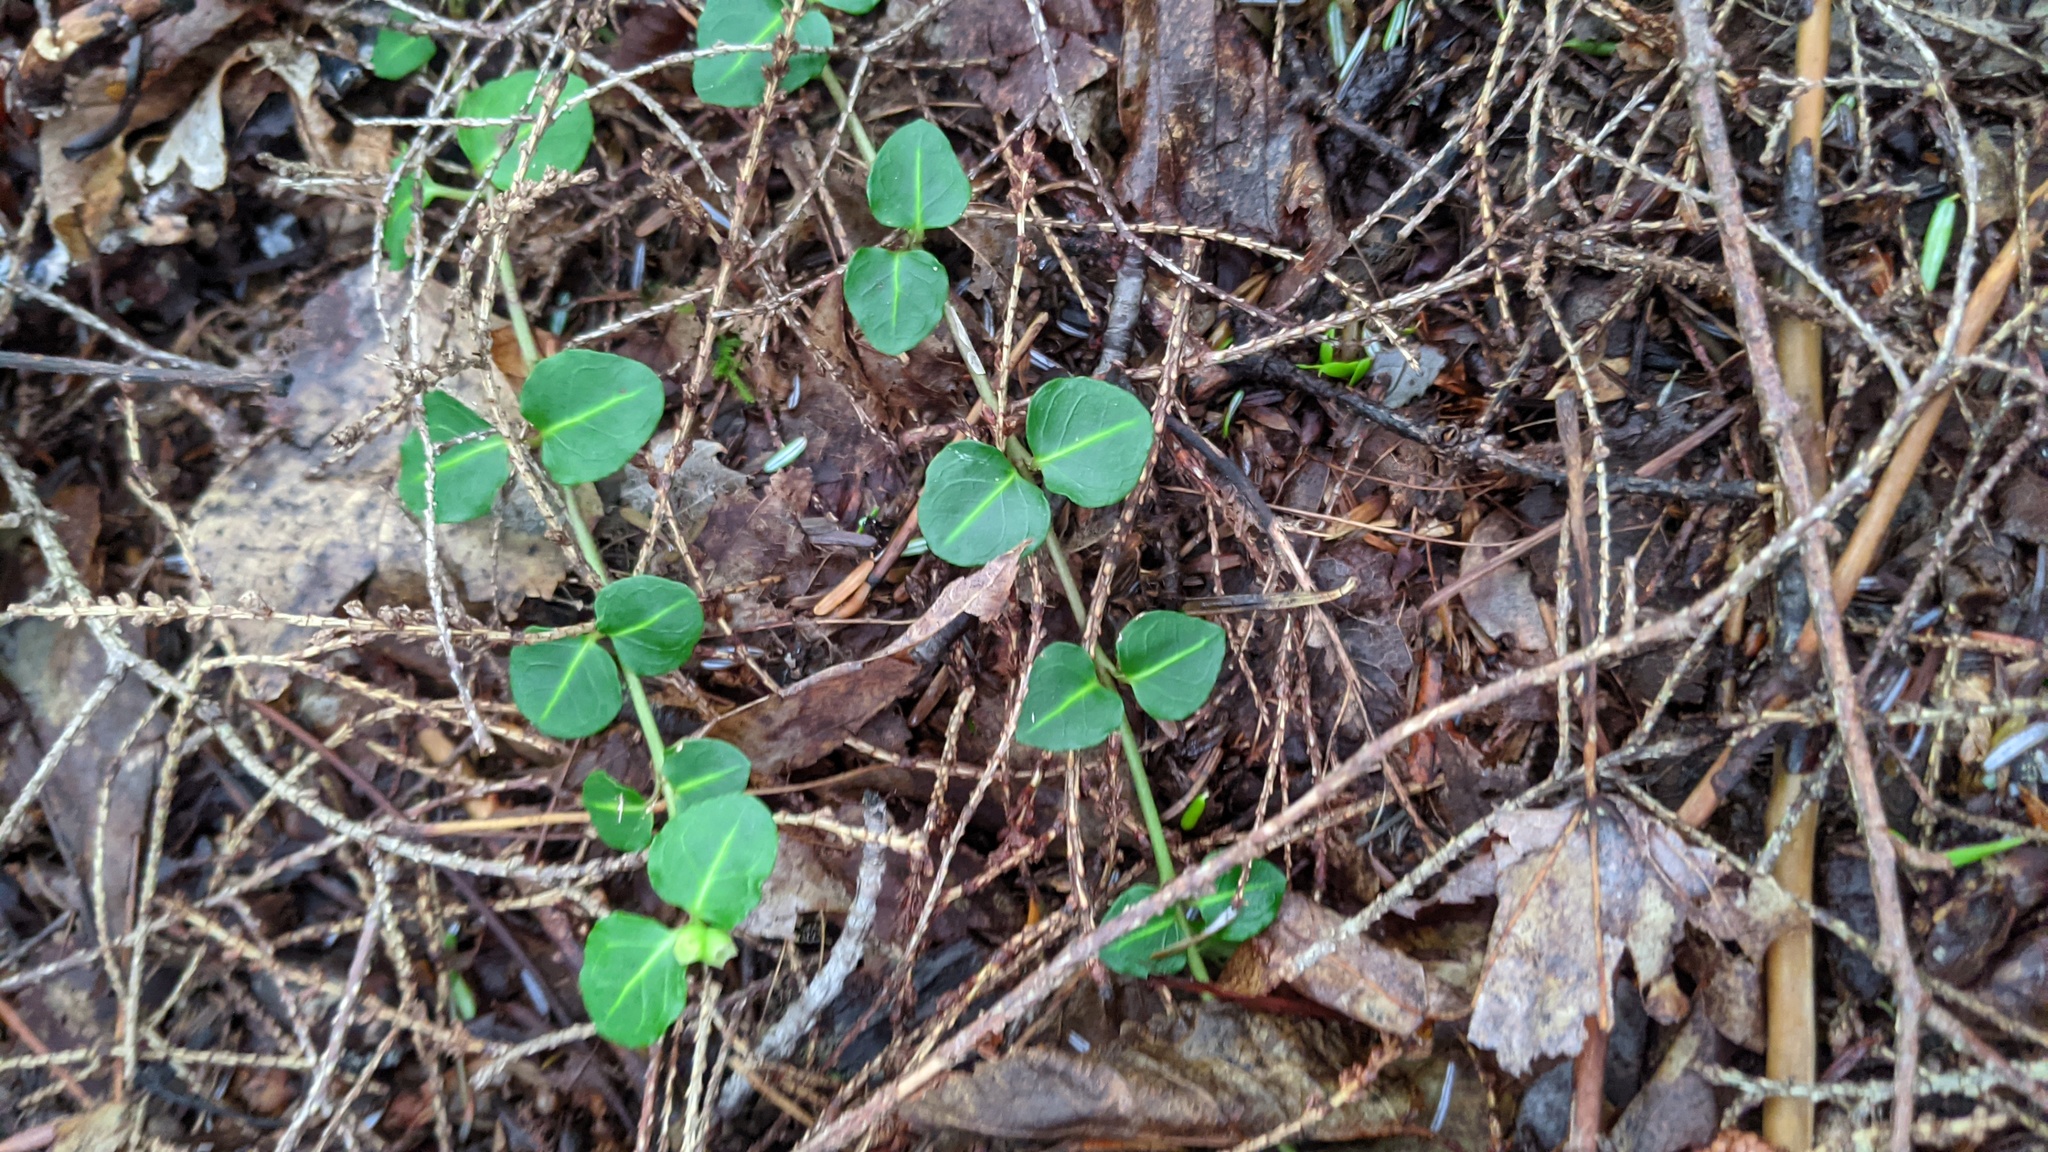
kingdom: Plantae
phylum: Tracheophyta
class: Magnoliopsida
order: Gentianales
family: Rubiaceae
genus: Mitchella
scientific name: Mitchella repens
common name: Partridge-berry
